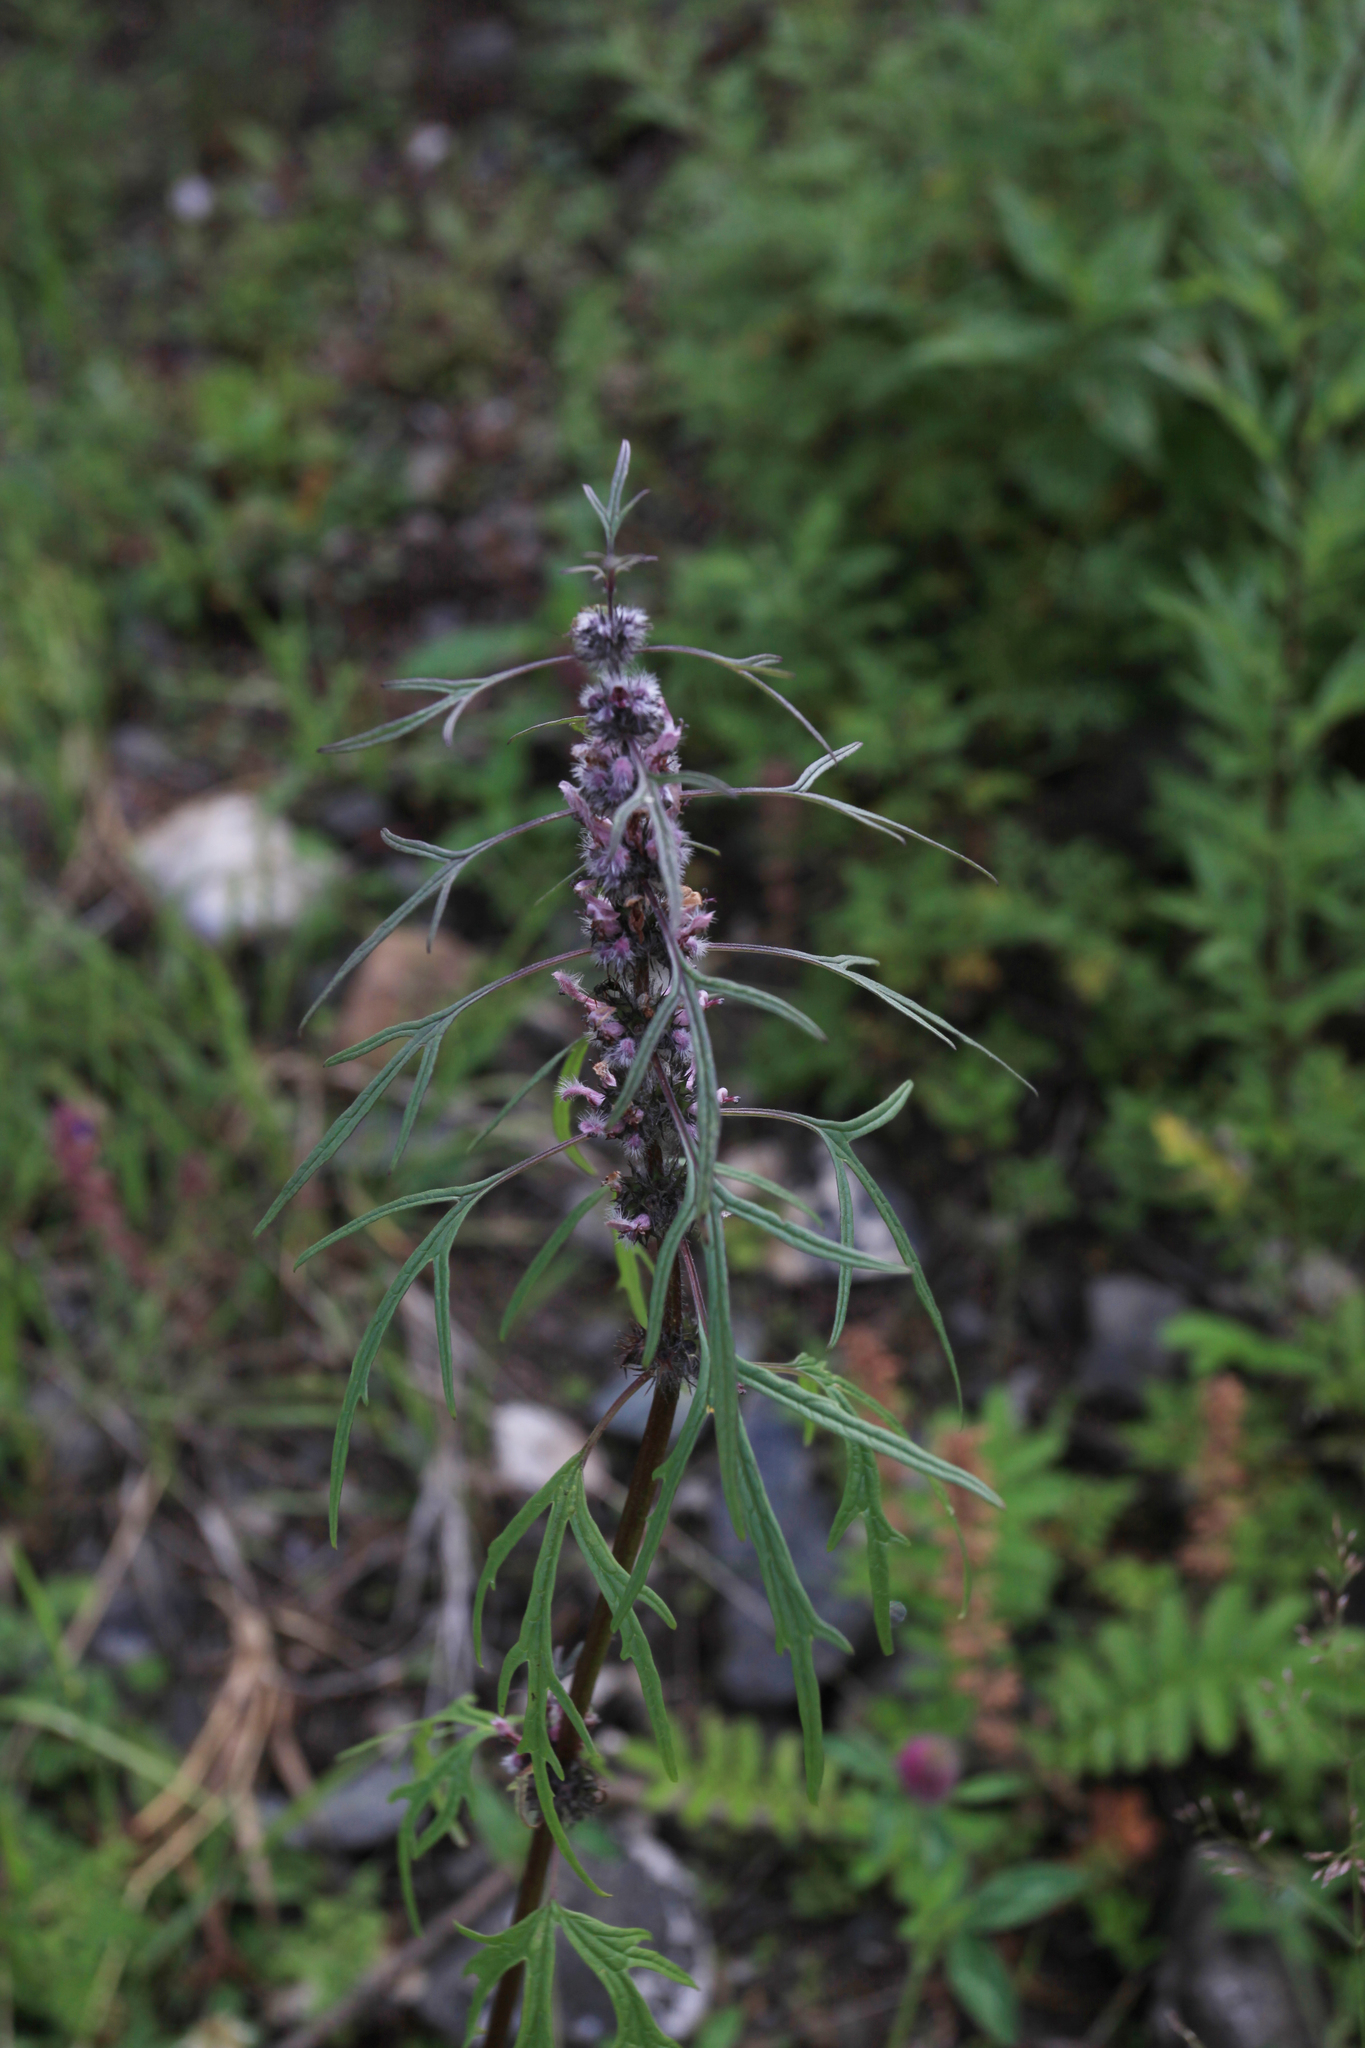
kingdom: Plantae
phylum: Tracheophyta
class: Magnoliopsida
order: Lamiales
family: Lamiaceae
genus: Leonurus
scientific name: Leonurus tataricus
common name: Chinese motherwort
